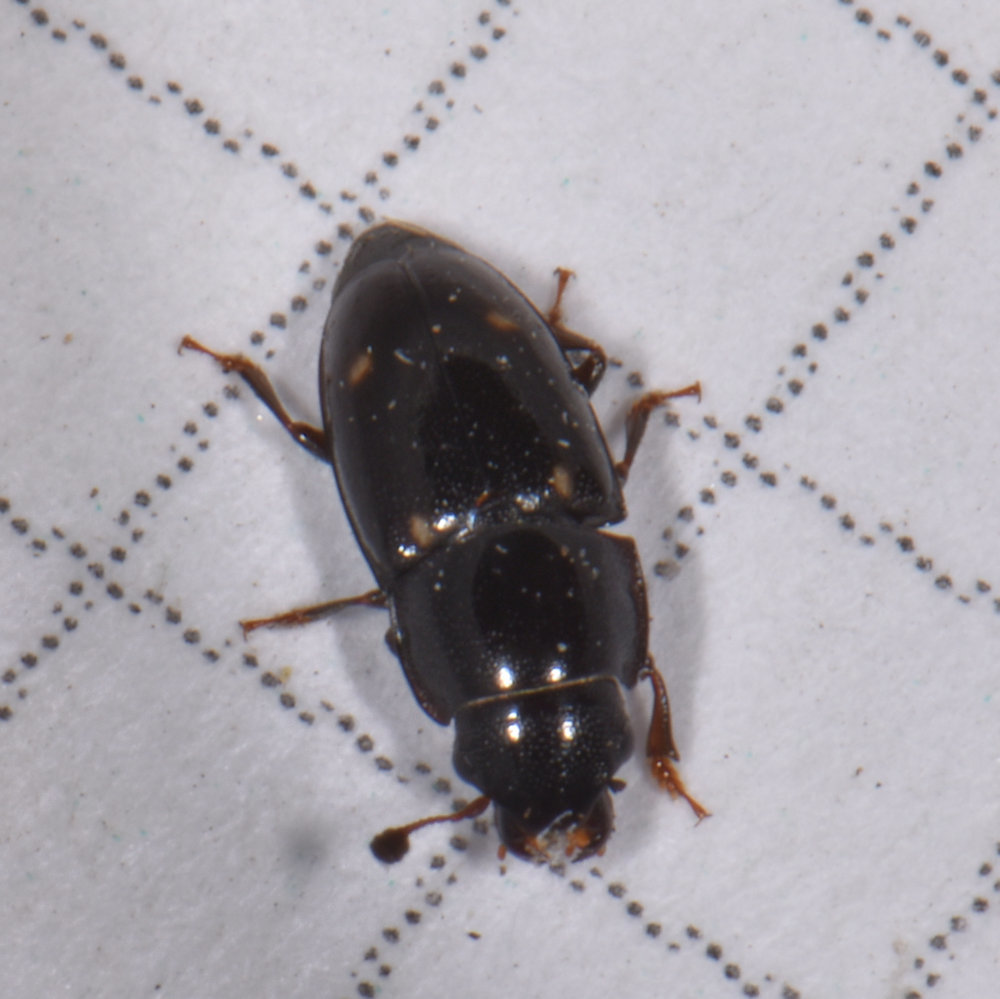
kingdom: Animalia
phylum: Arthropoda
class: Insecta
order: Coleoptera
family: Nitidulidae
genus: Glischrochilus
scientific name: Glischrochilus siepmanni
